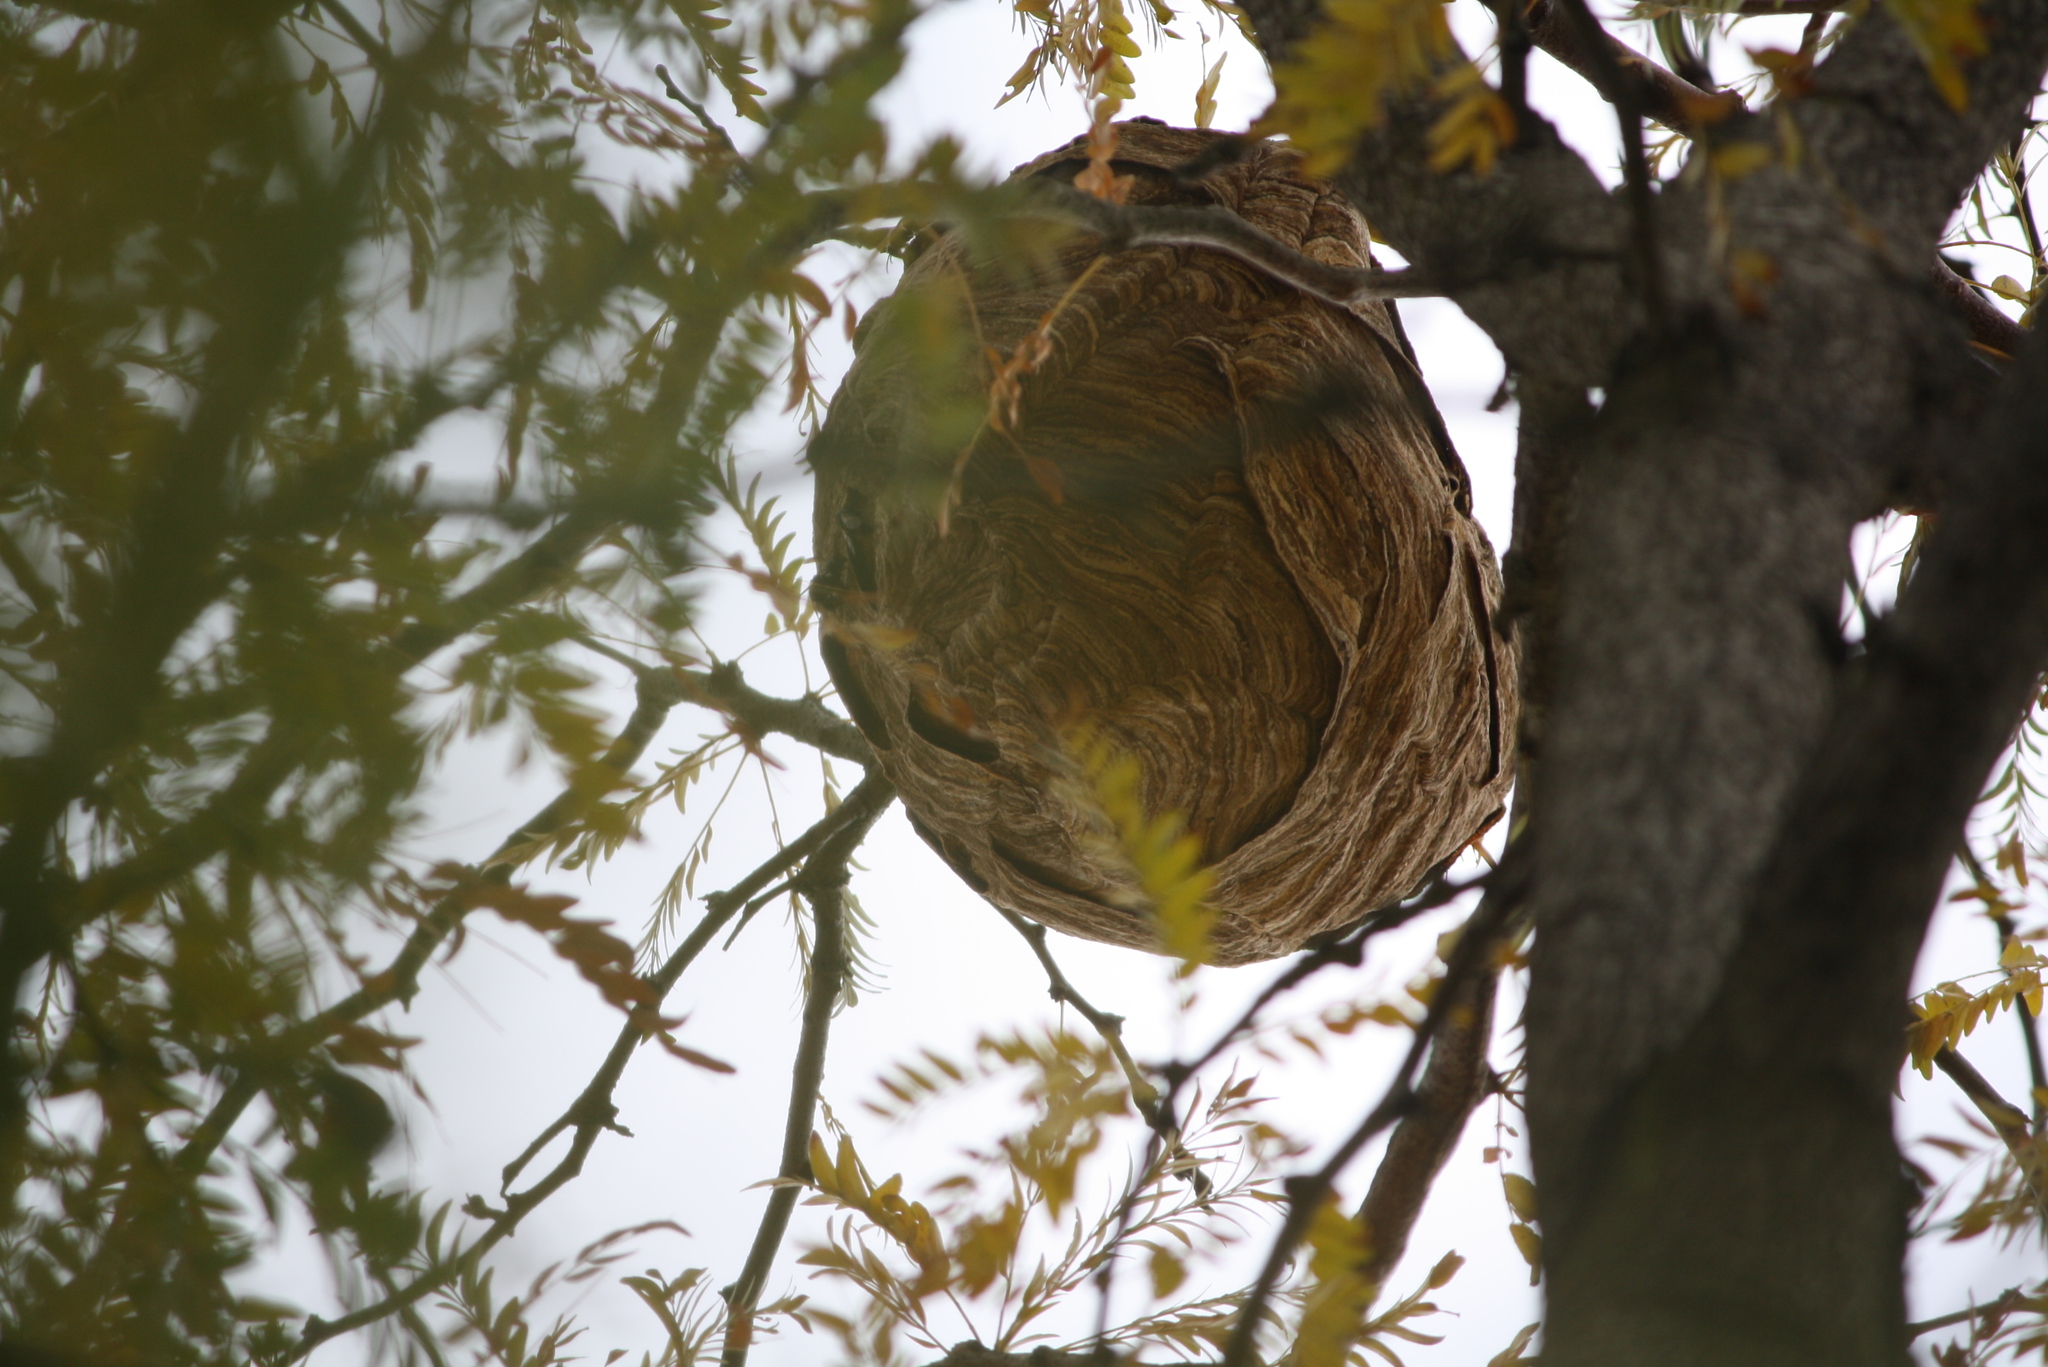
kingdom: Animalia
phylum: Arthropoda
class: Insecta
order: Hymenoptera
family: Vespidae
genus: Vespa
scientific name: Vespa velutina
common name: Asian hornet
